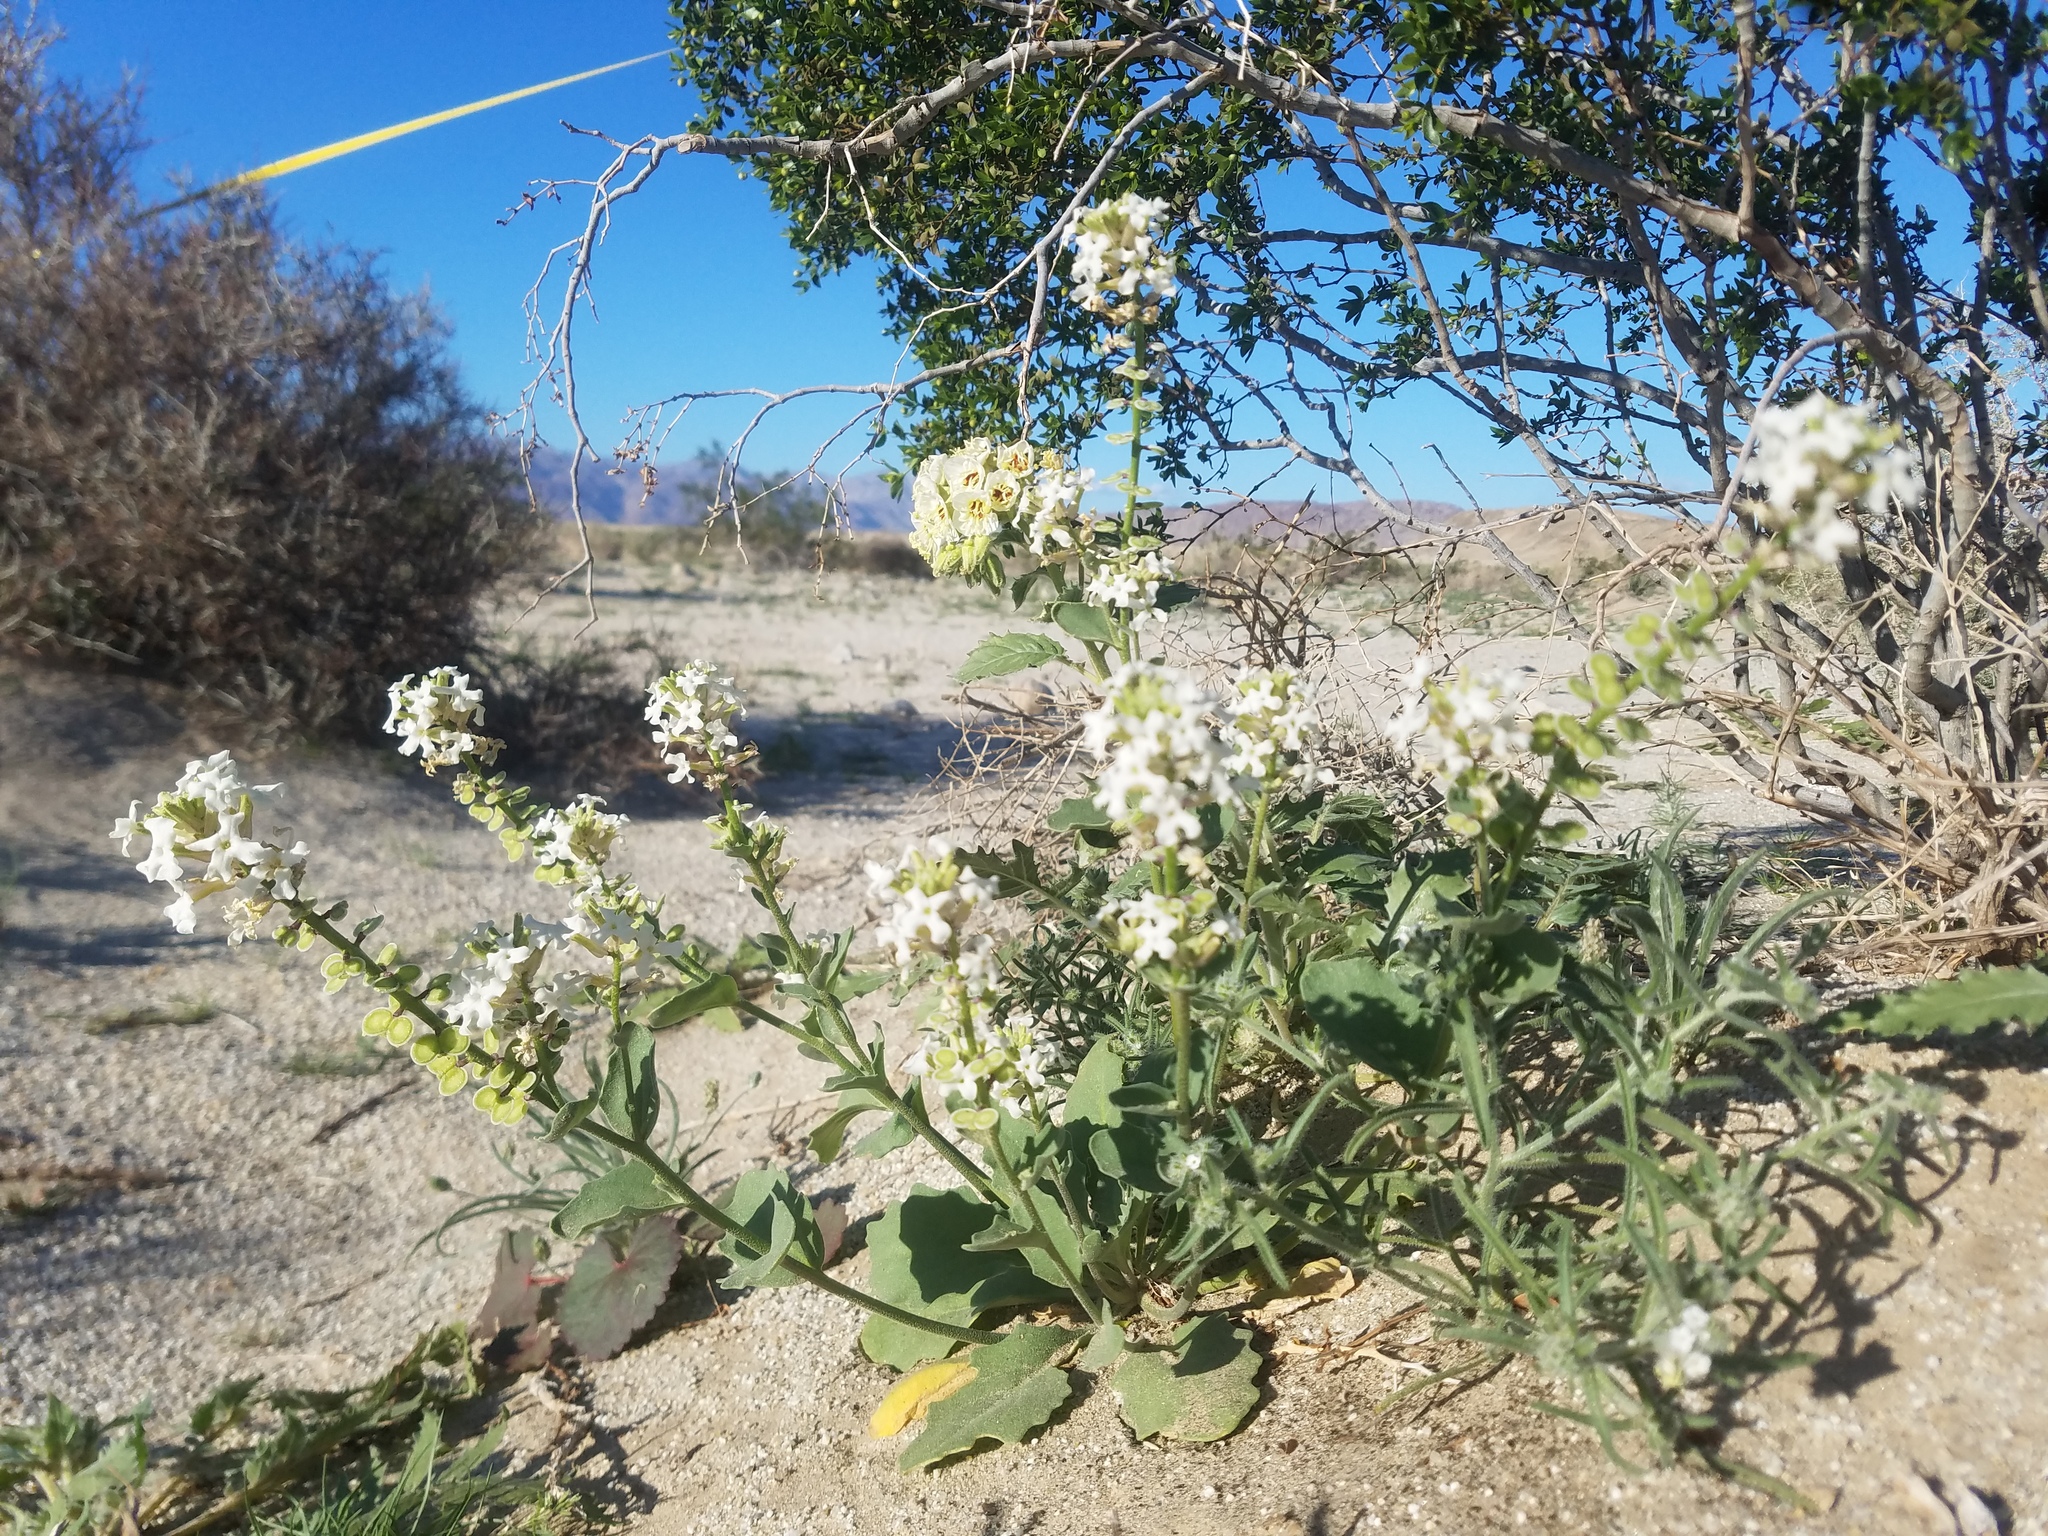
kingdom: Plantae
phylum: Tracheophyta
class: Magnoliopsida
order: Brassicales
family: Brassicaceae
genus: Dithyrea
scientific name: Dithyrea californica
